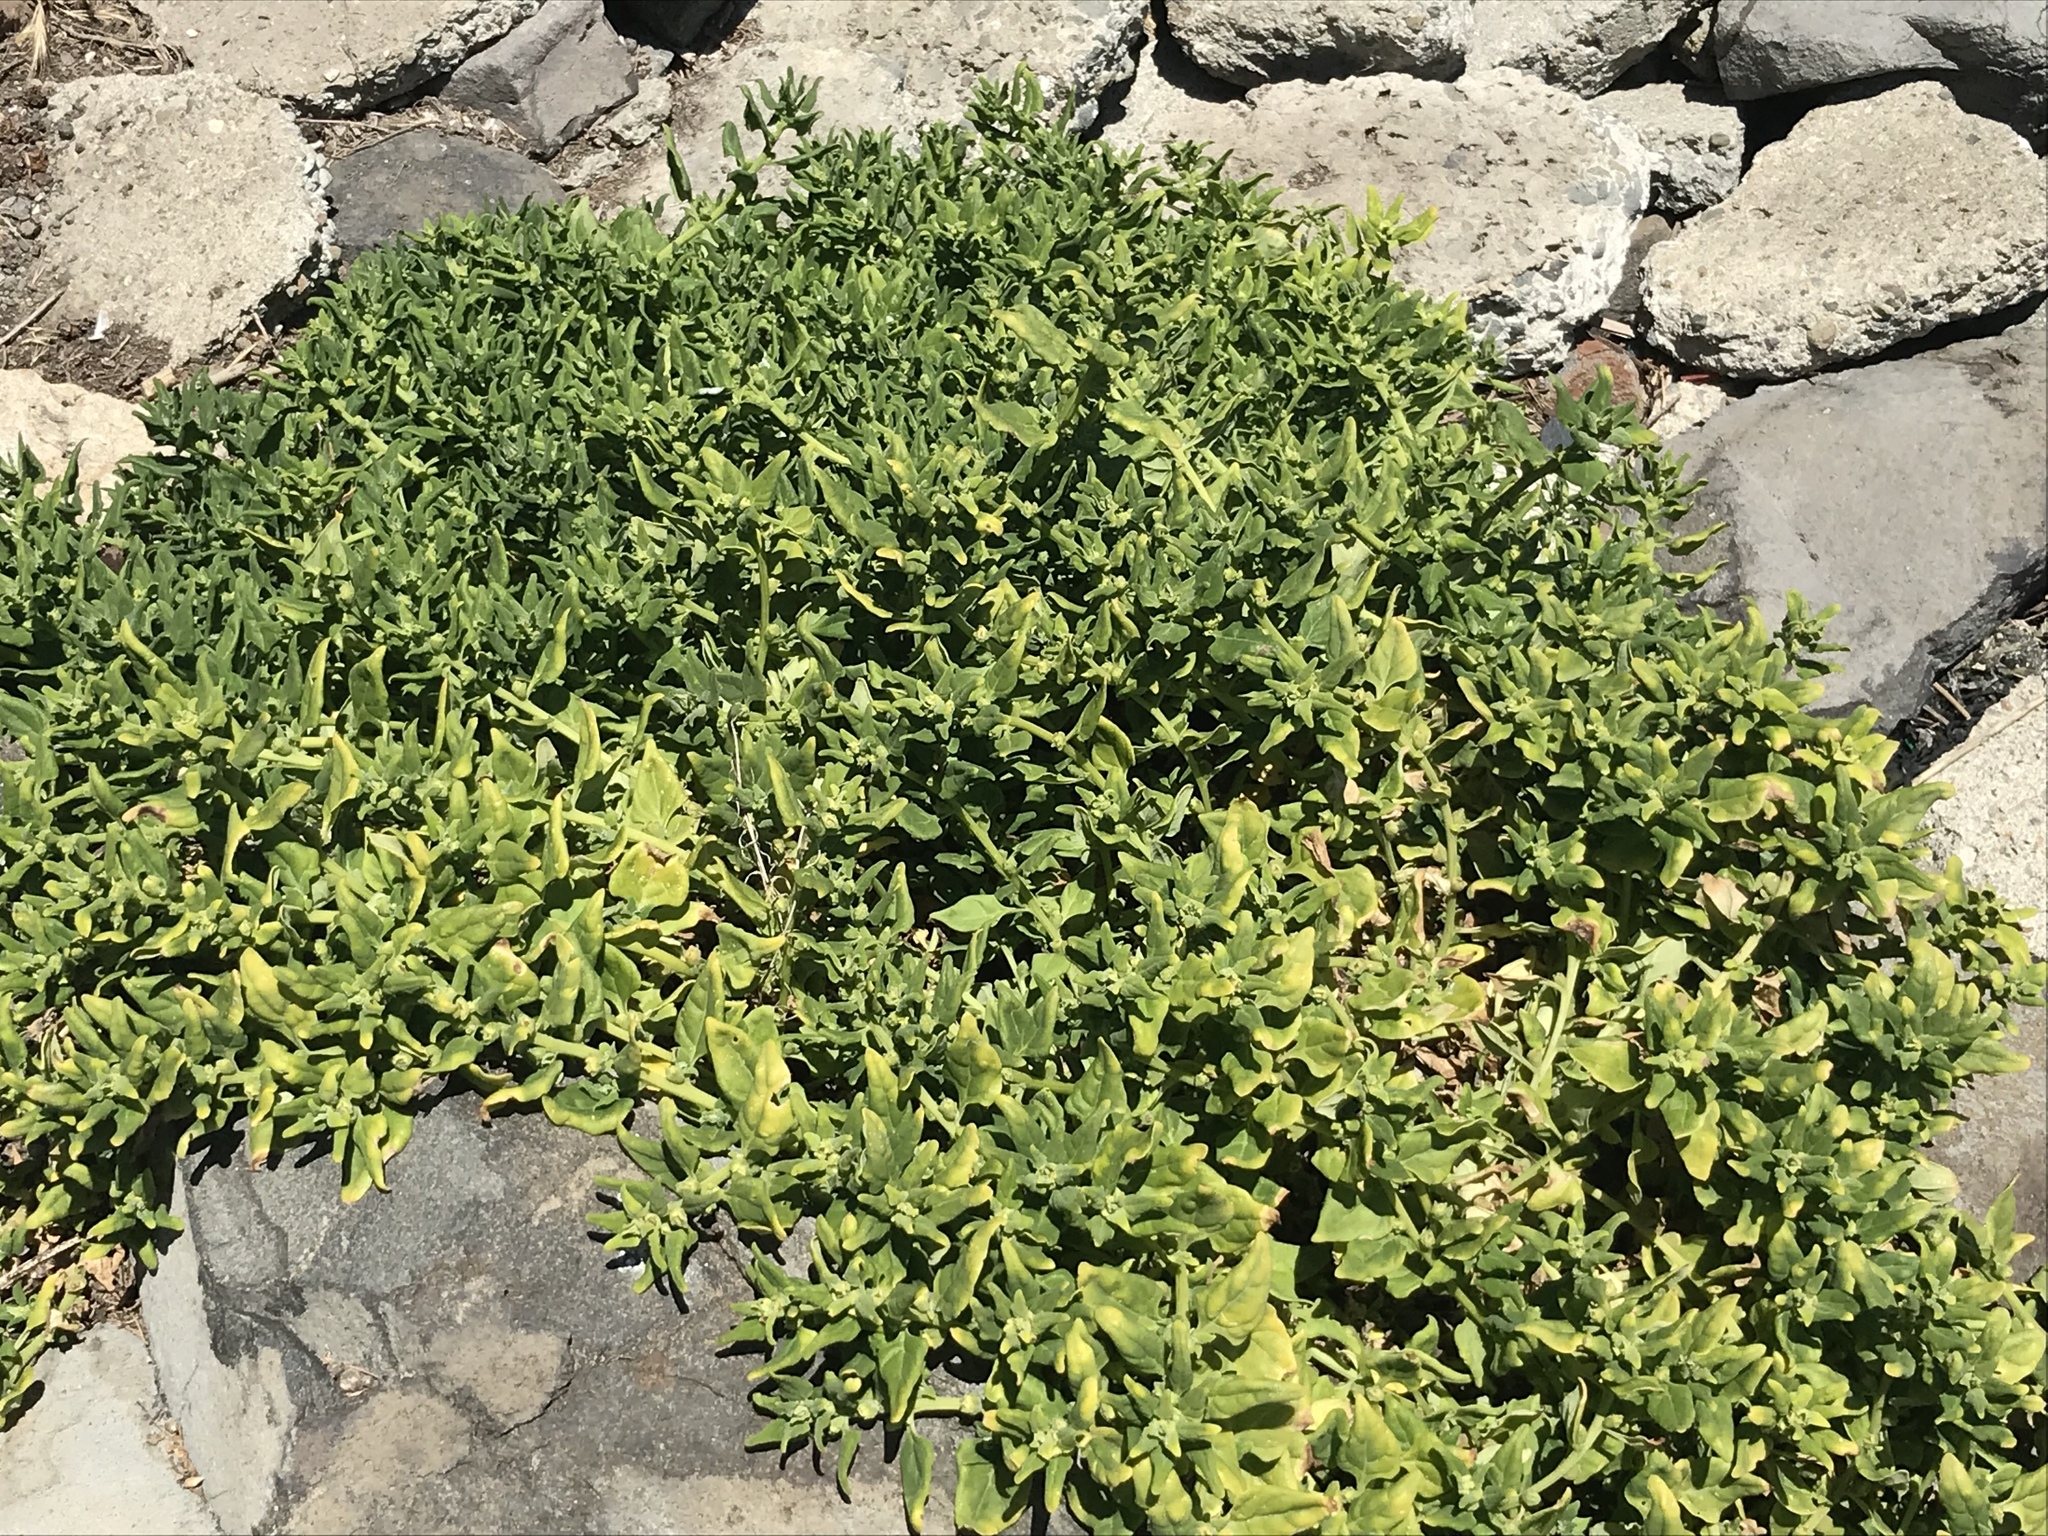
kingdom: Plantae
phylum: Tracheophyta
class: Magnoliopsida
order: Caryophyllales
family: Aizoaceae
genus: Tetragonia
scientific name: Tetragonia tetragonoides
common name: New zealand-spinach
